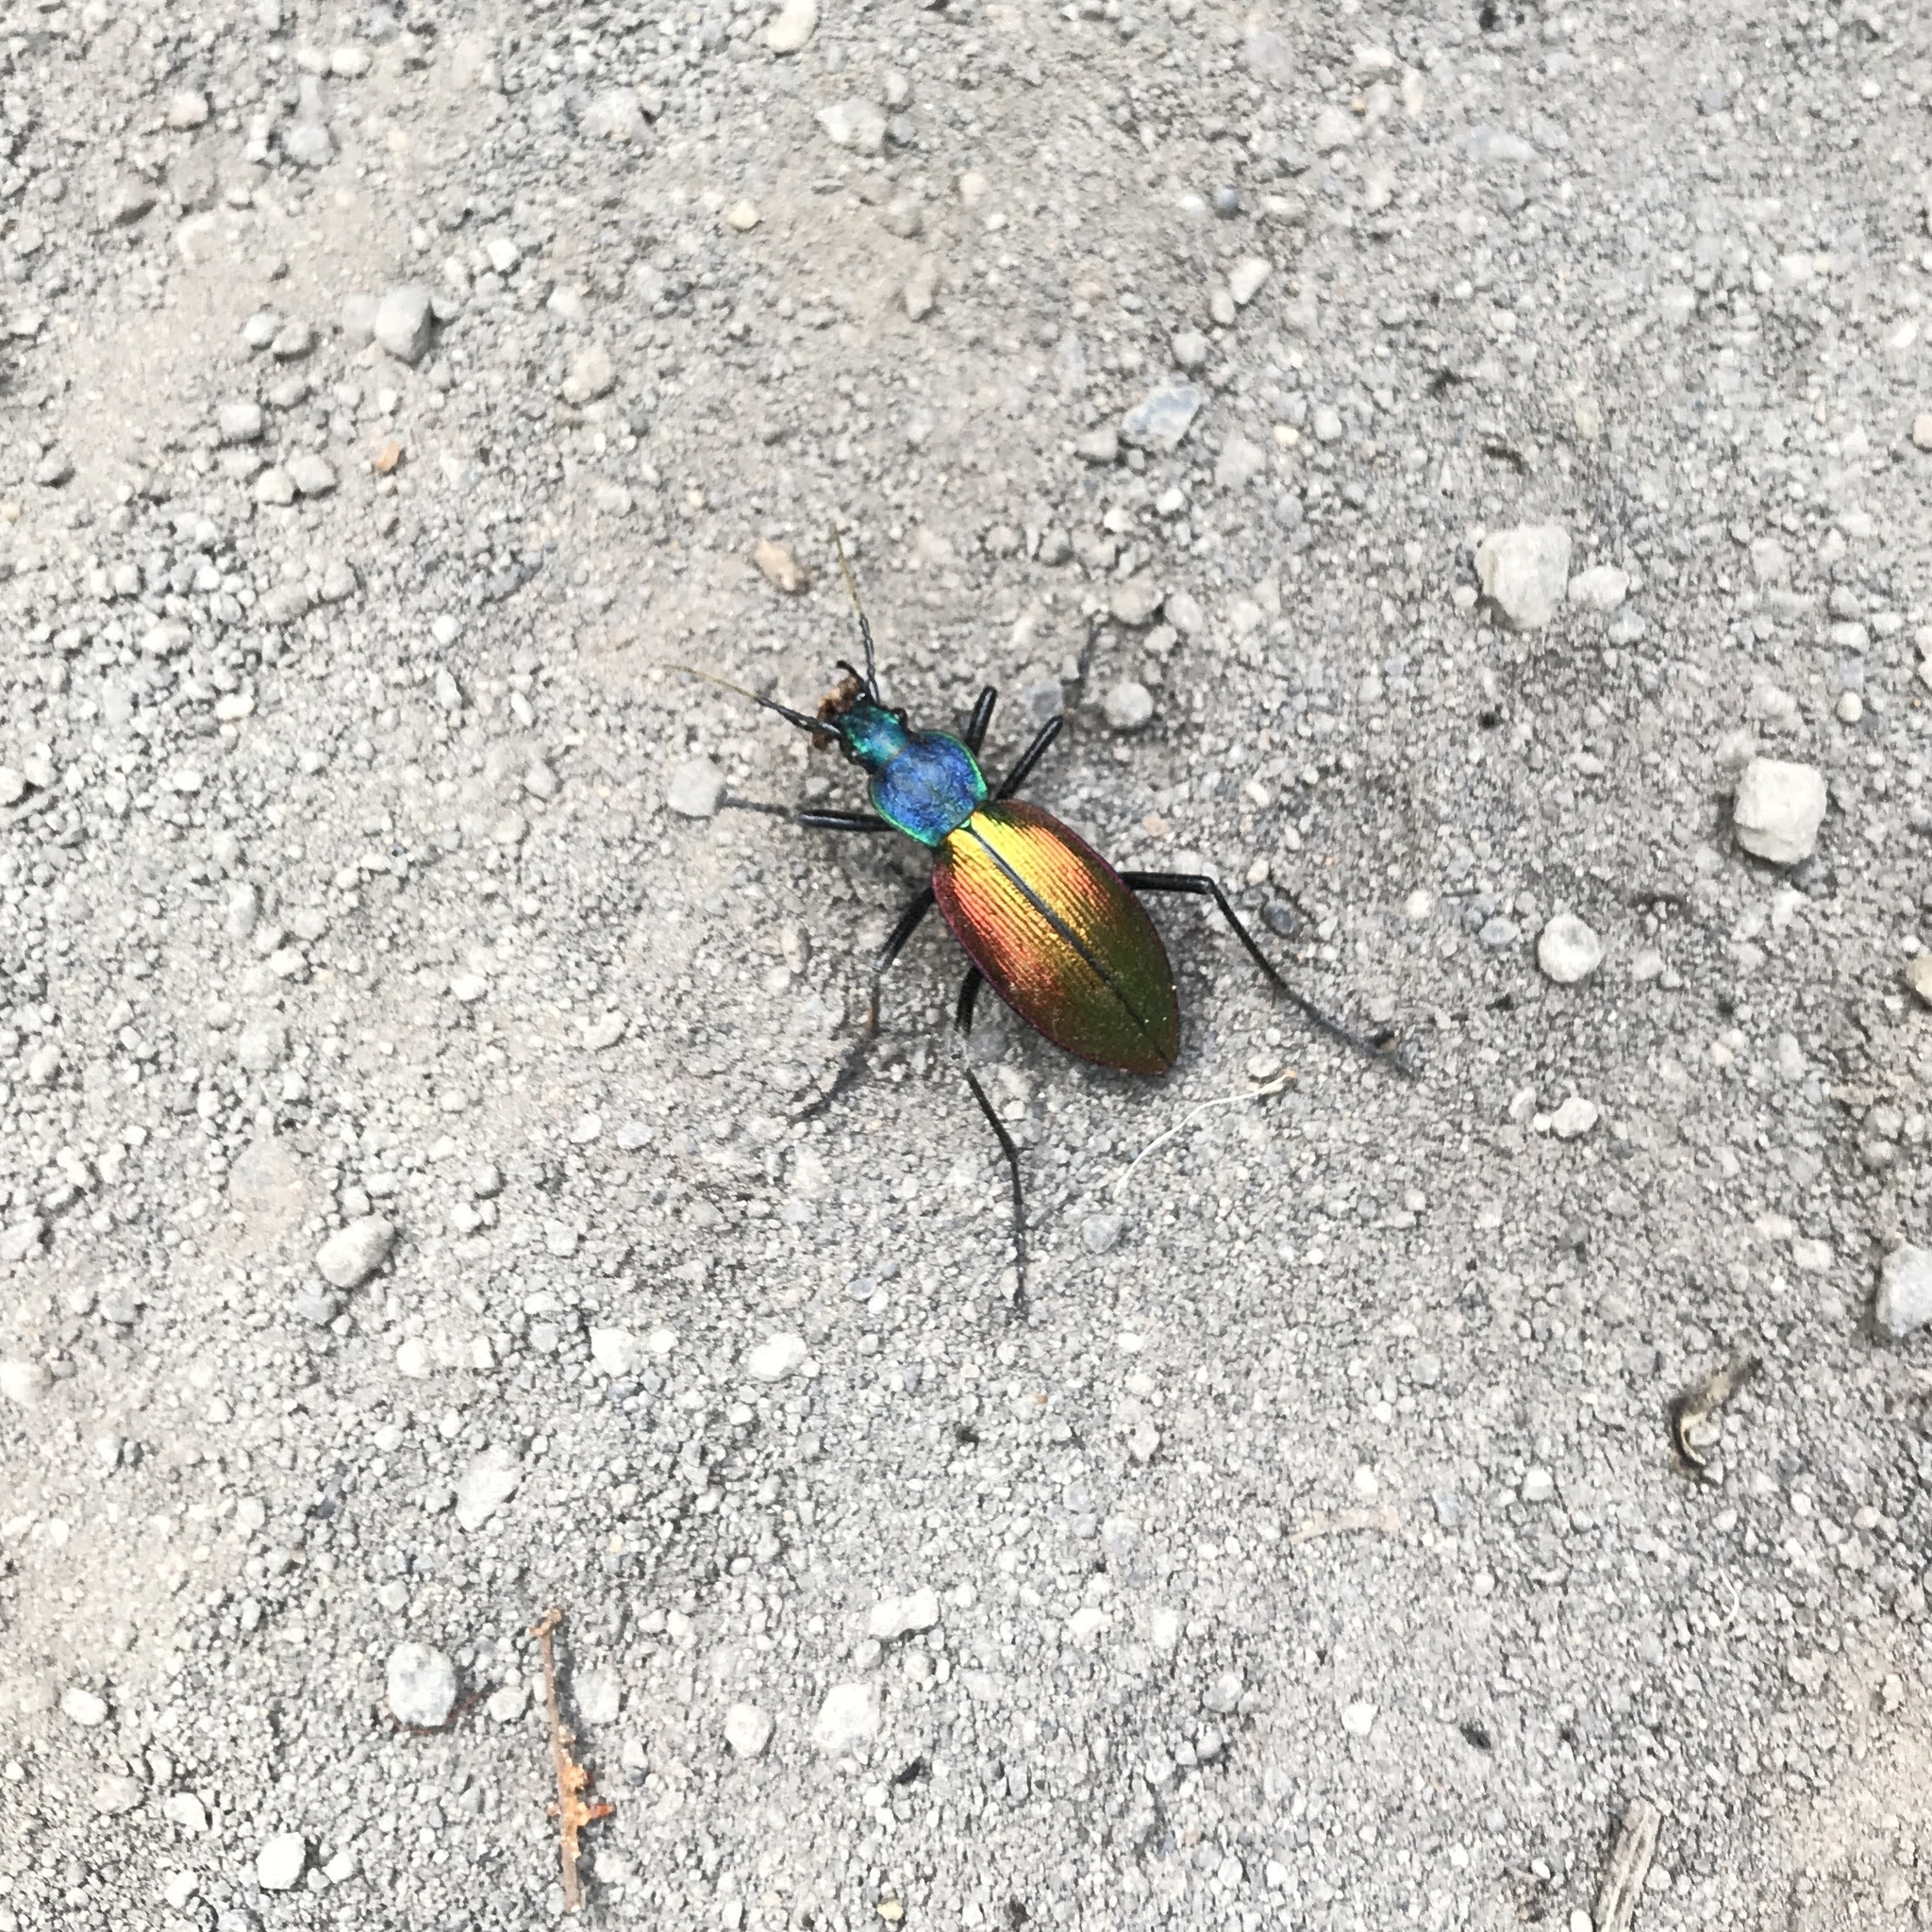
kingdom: Animalia
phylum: Arthropoda
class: Insecta
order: Coleoptera
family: Carabidae
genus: Ceroglossus
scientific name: Ceroglossus chilensis
